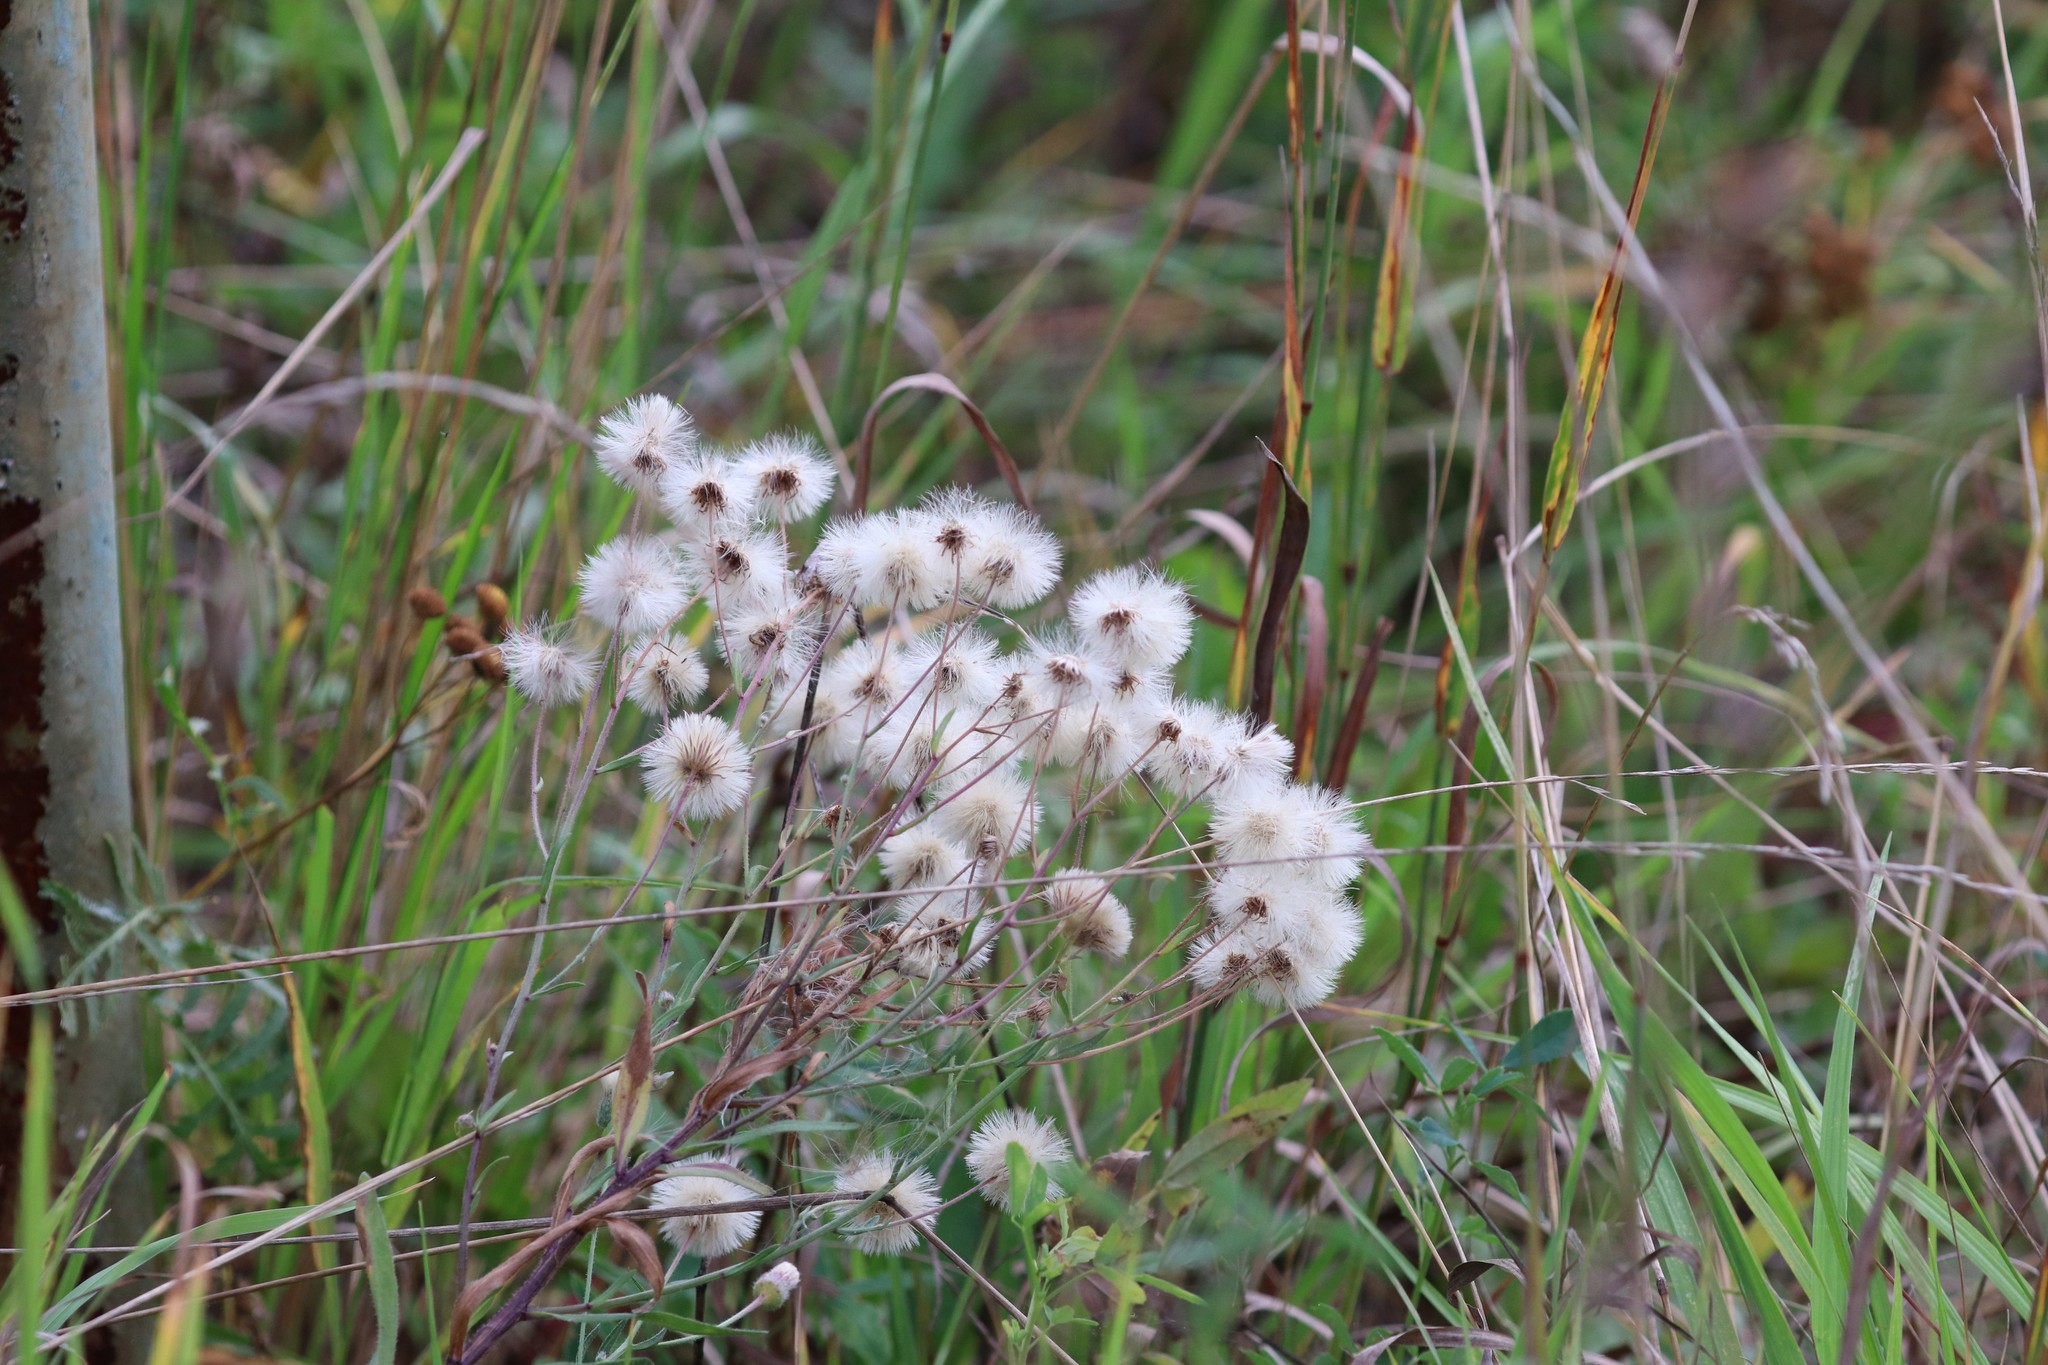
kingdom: Plantae
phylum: Tracheophyta
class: Magnoliopsida
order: Asterales
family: Asteraceae
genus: Erigeron
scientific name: Erigeron acris
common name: Blue fleabane
